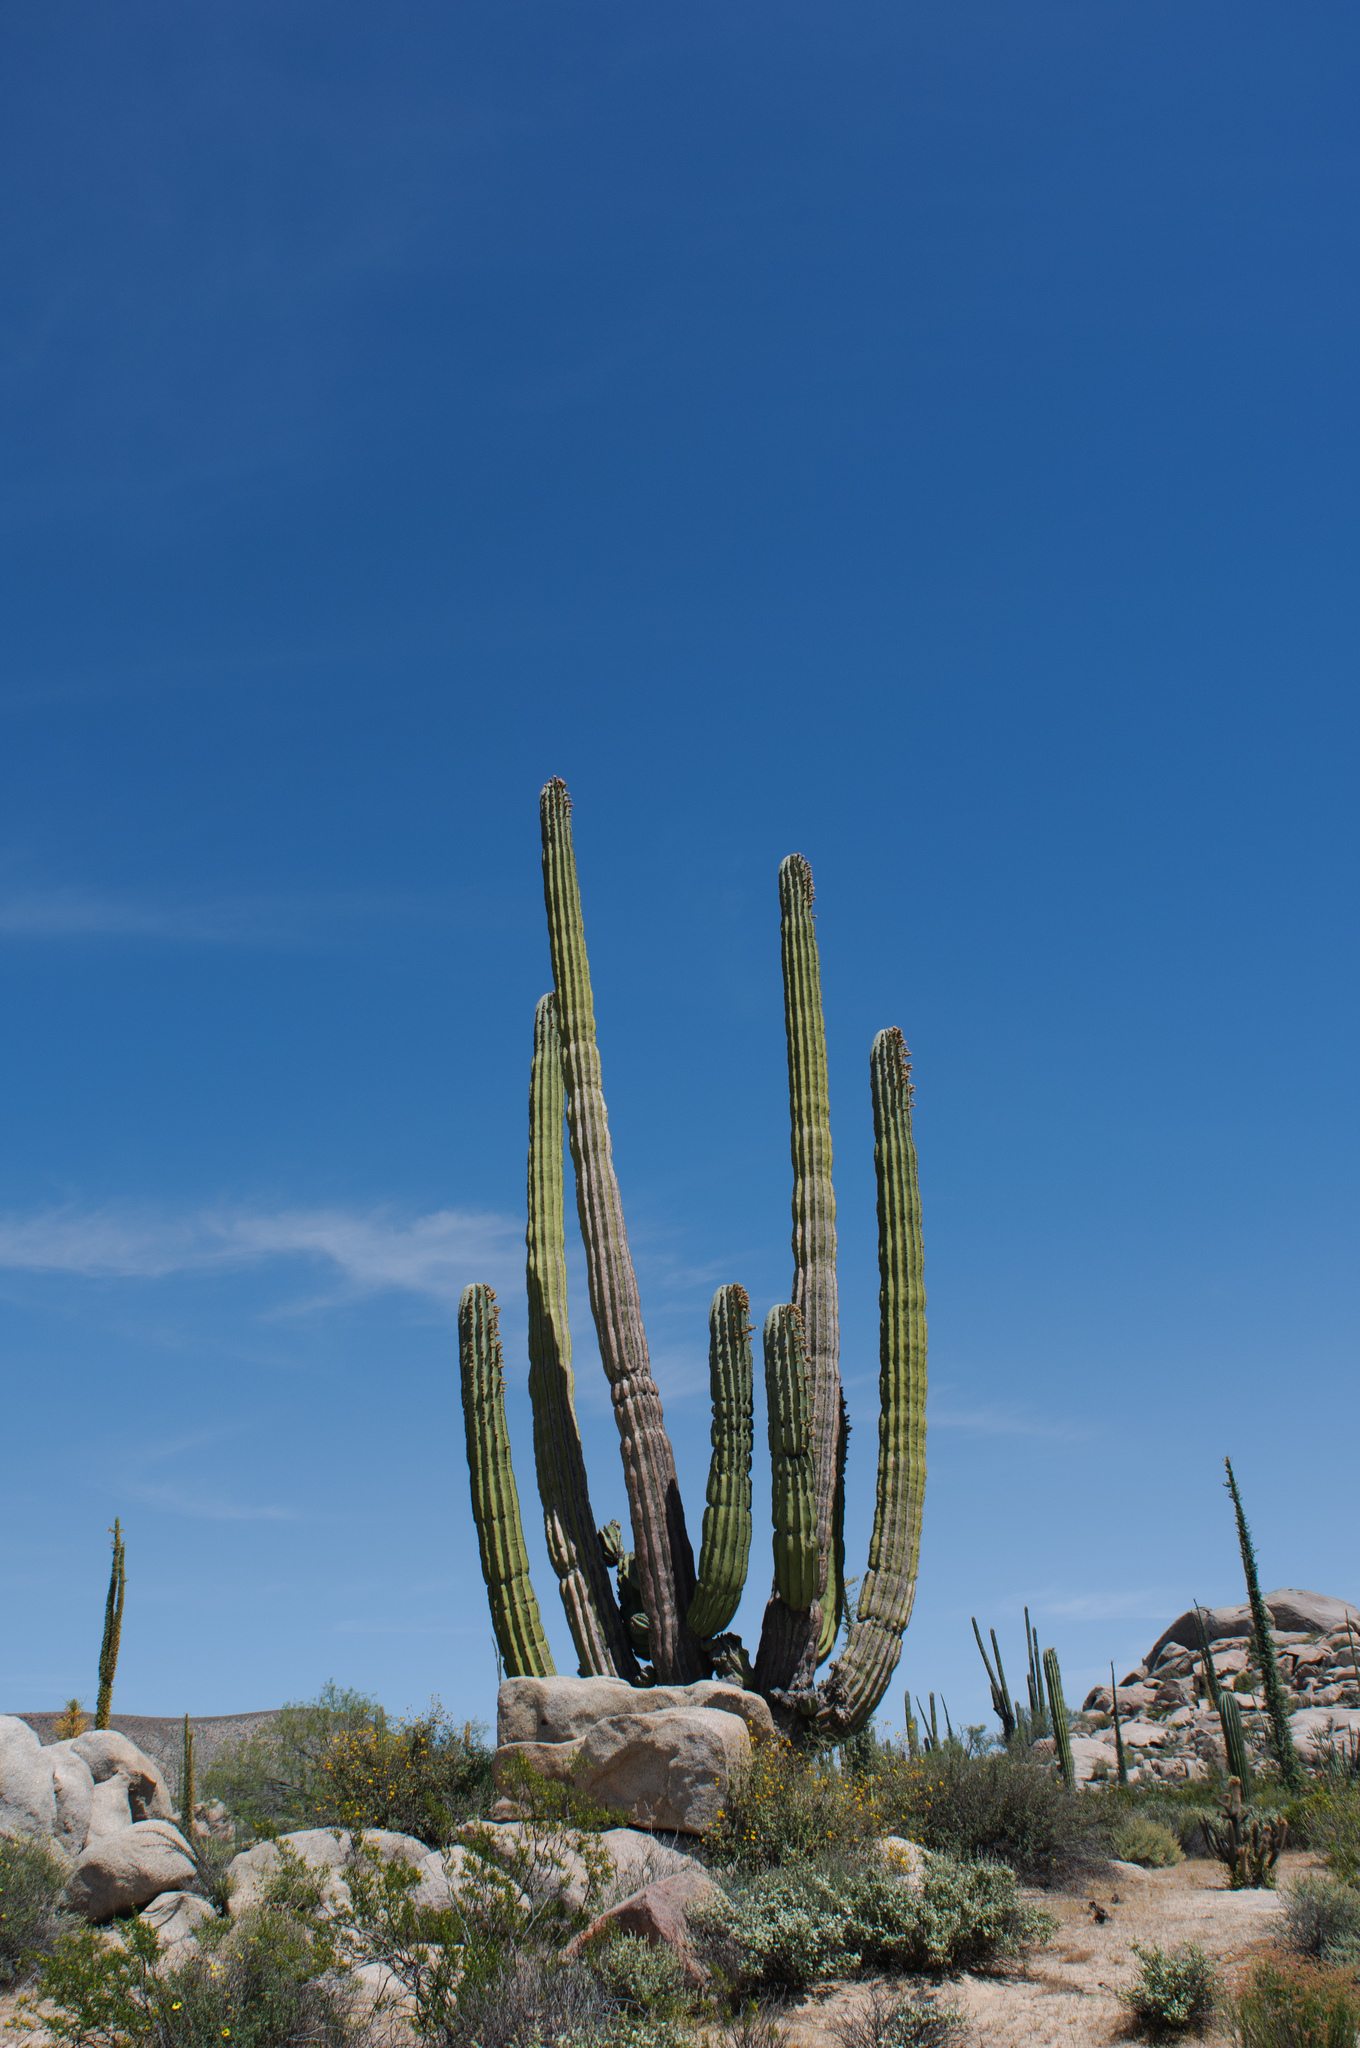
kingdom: Plantae
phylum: Tracheophyta
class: Magnoliopsida
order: Caryophyllales
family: Cactaceae
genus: Pachycereus
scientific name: Pachycereus pringlei
